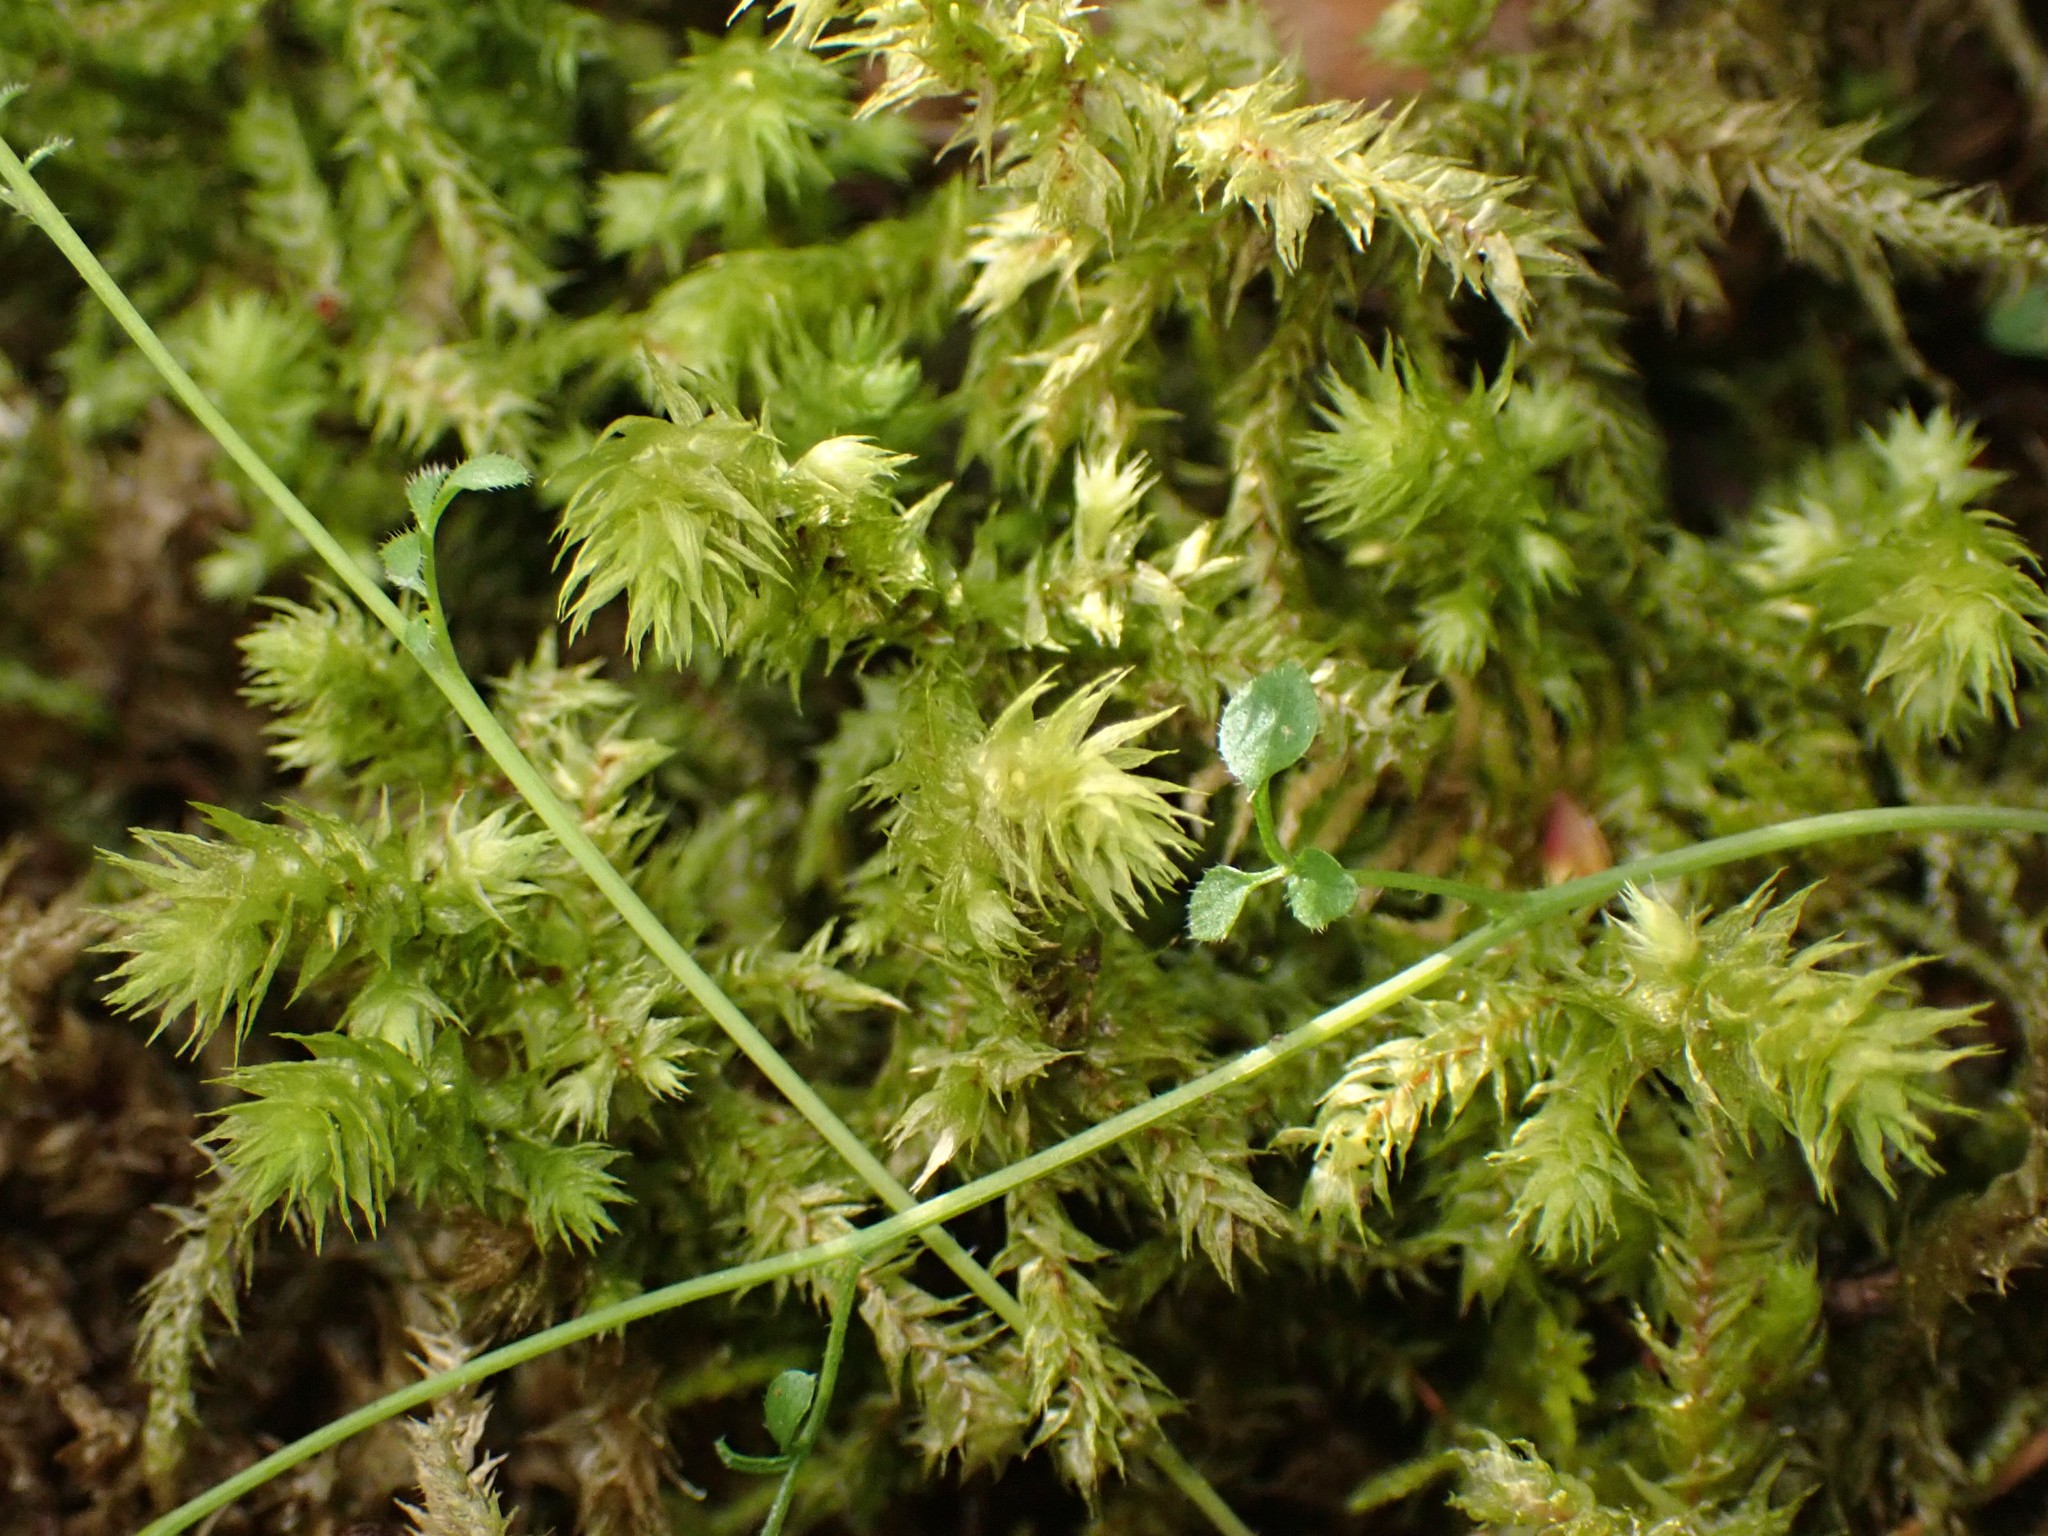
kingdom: Plantae
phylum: Bryophyta
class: Bryopsida
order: Hypnales
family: Hylocomiaceae
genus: Hylocomiadelphus
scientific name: Hylocomiadelphus triquetrus
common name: Rough goose neck moss
